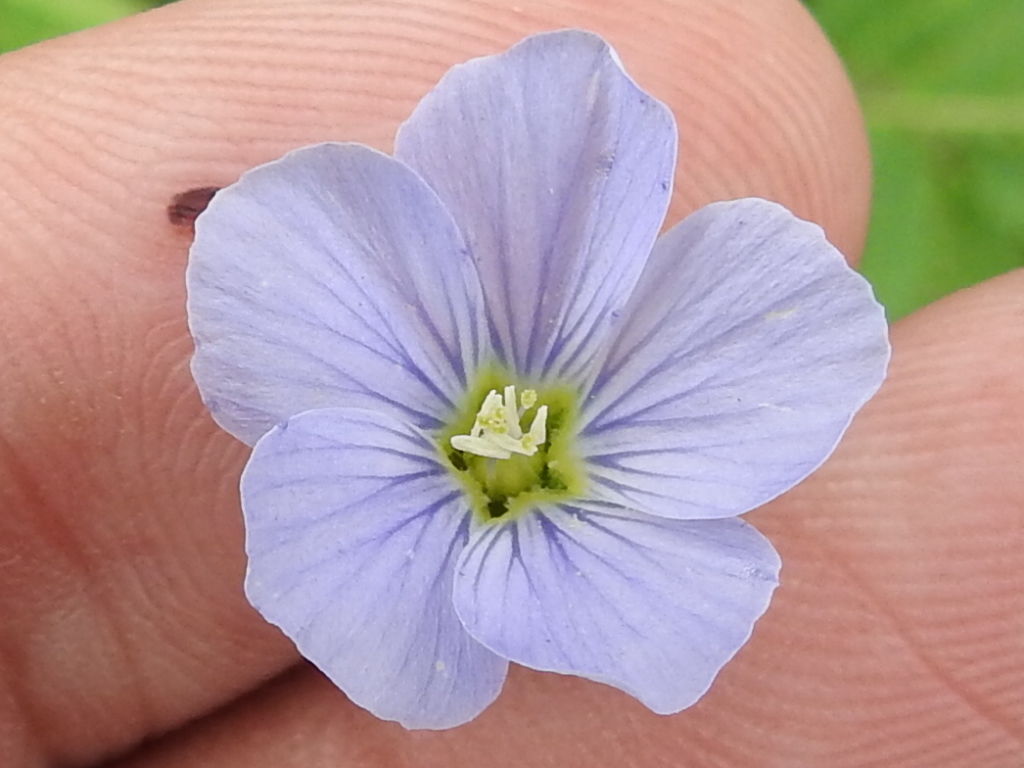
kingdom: Plantae
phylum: Tracheophyta
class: Magnoliopsida
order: Malpighiales
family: Linaceae
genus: Linum
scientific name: Linum pratense
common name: Norton's flax
